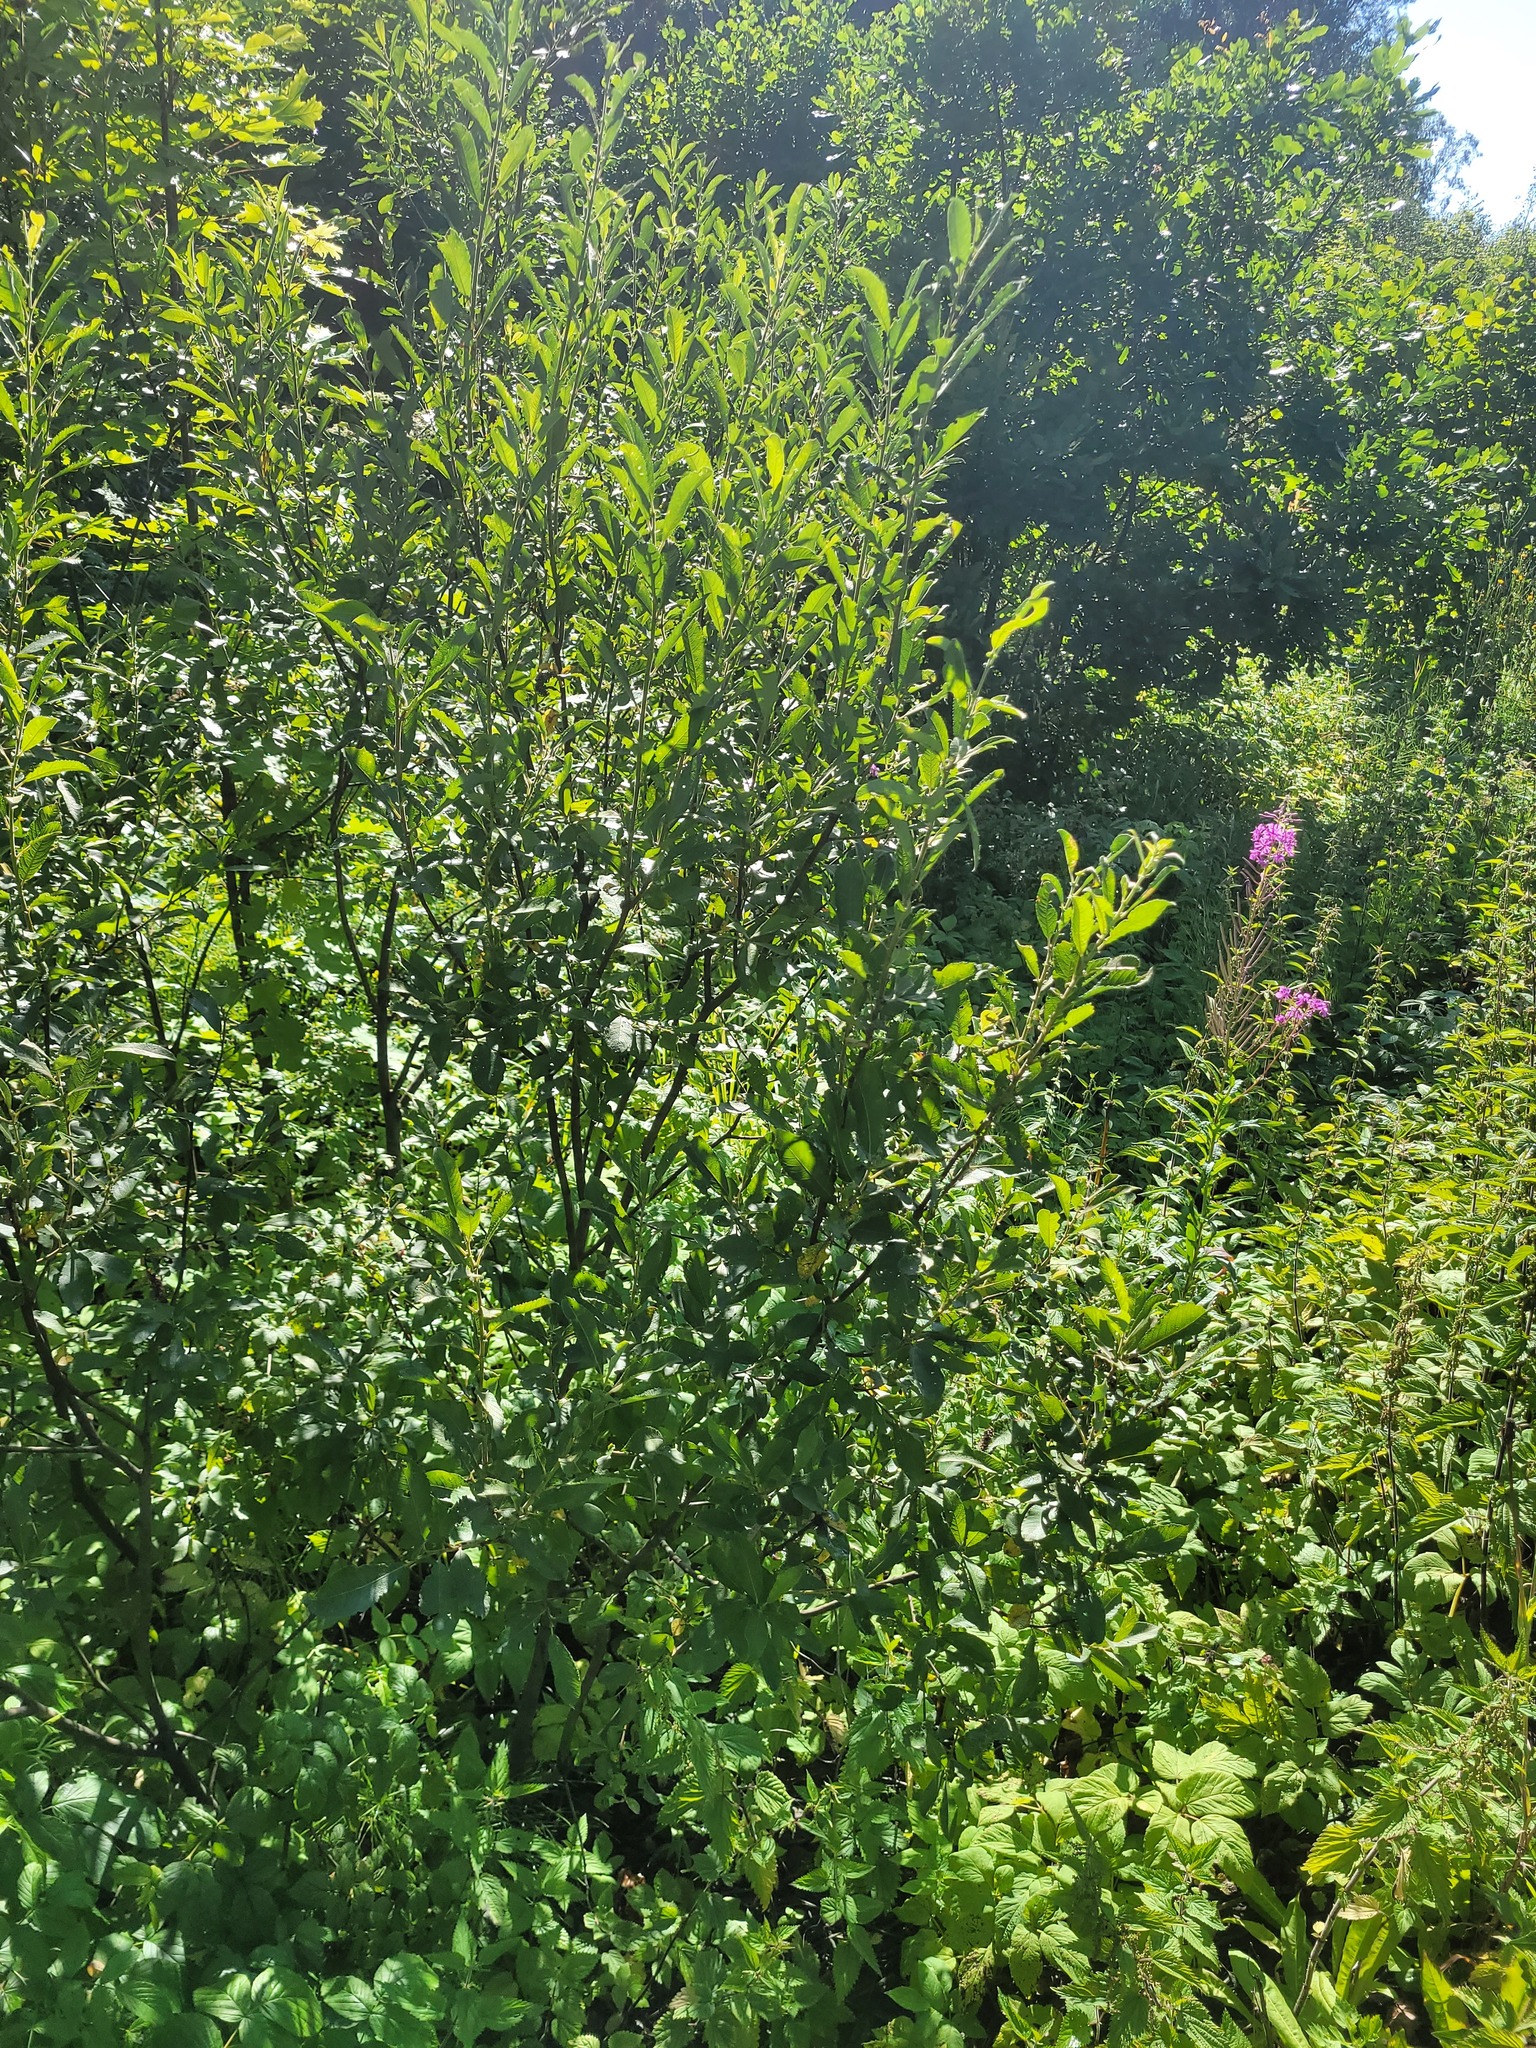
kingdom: Plantae
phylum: Tracheophyta
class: Magnoliopsida
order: Malpighiales
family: Salicaceae
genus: Salix
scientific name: Salix cinerea
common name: Common sallow
